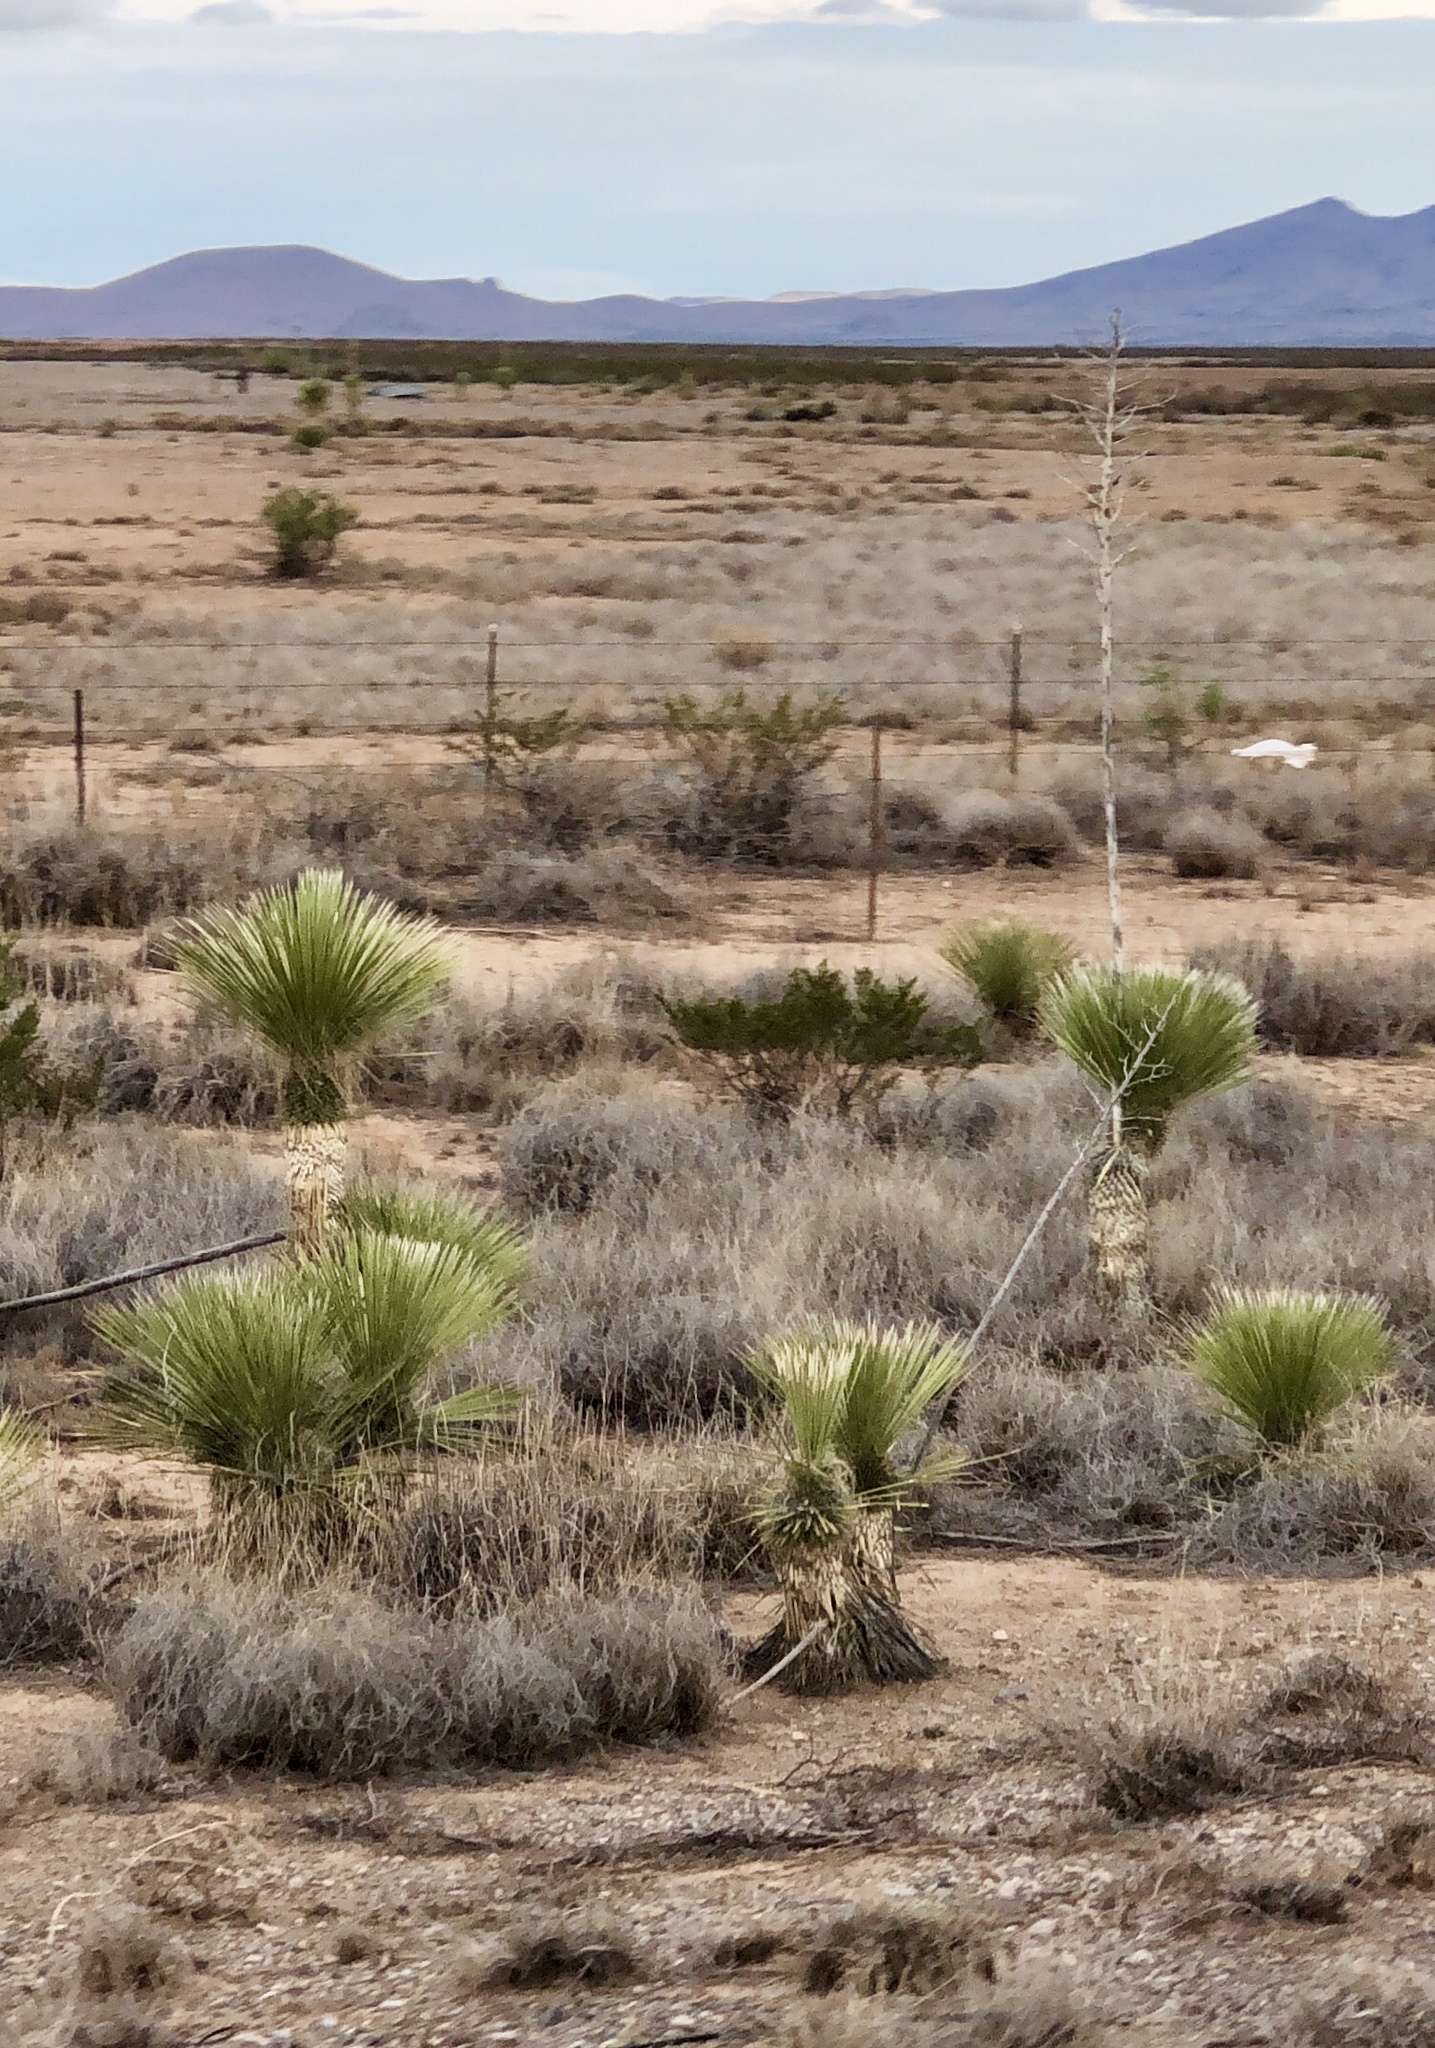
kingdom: Plantae
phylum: Tracheophyta
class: Liliopsida
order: Asparagales
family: Asparagaceae
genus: Yucca
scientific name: Yucca elata
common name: Palmella
